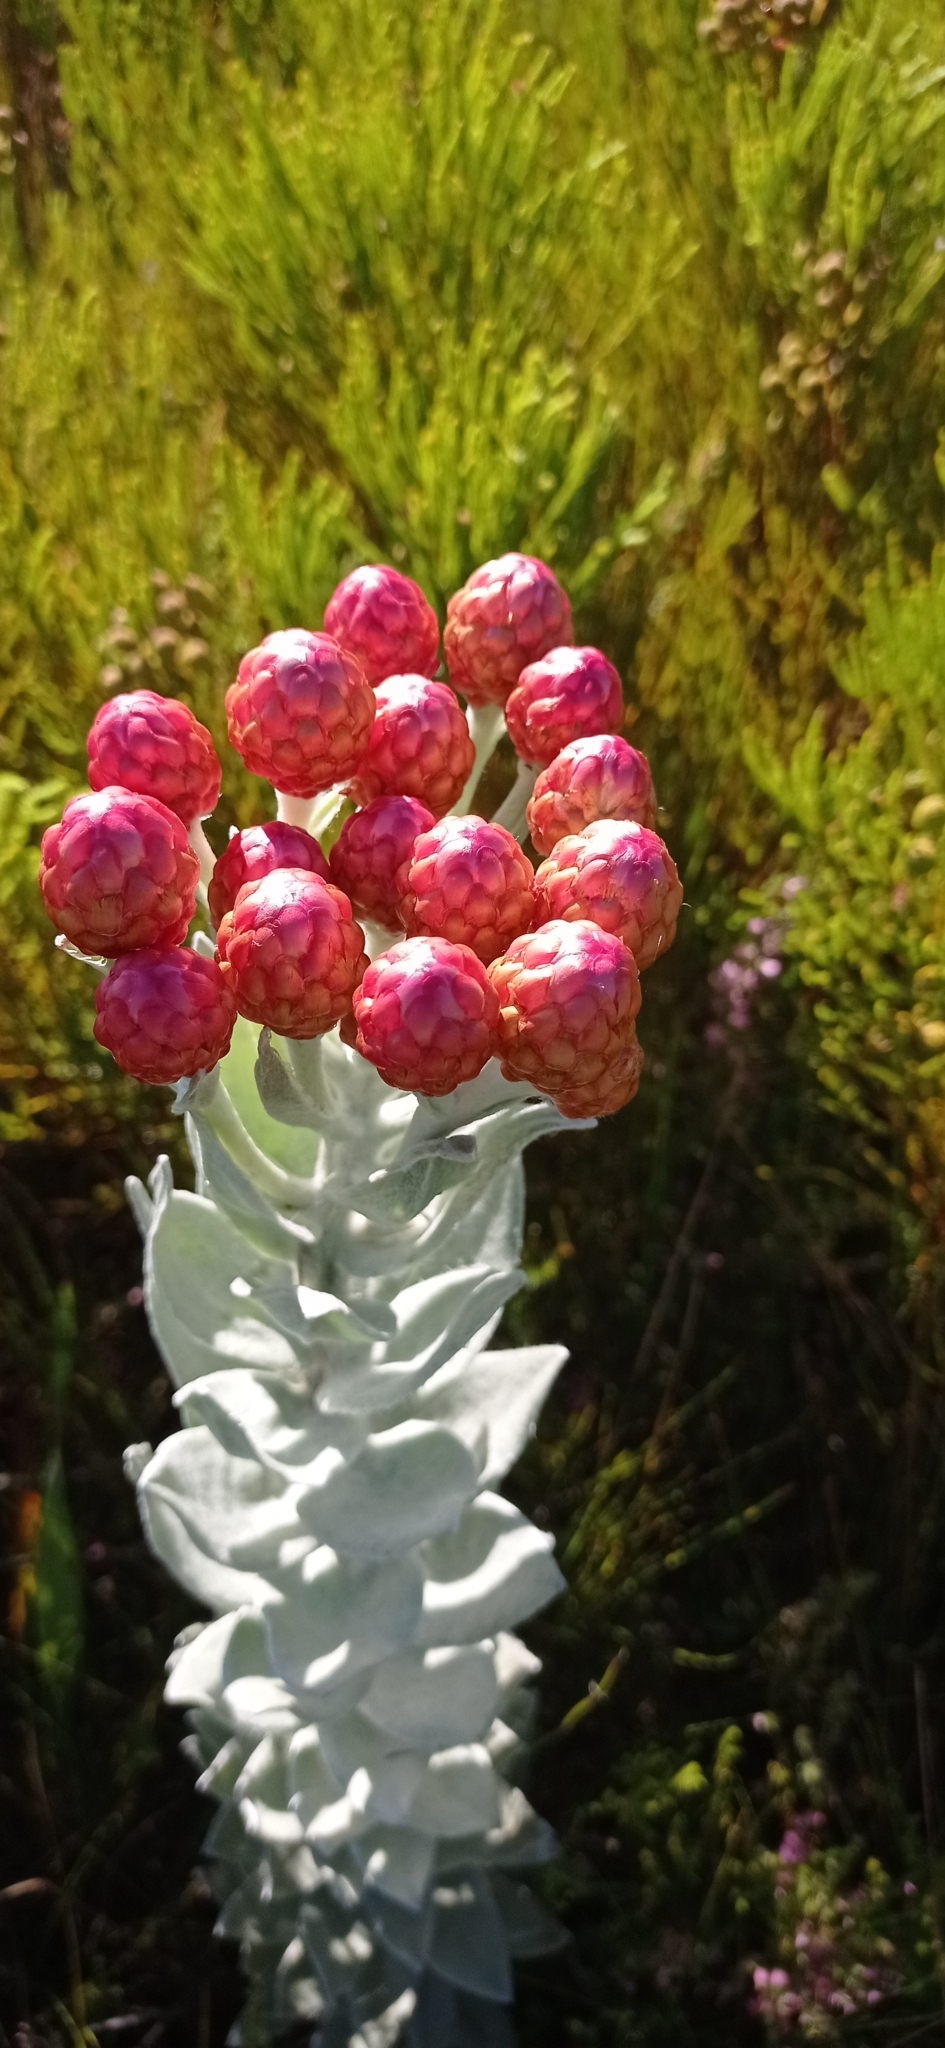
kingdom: Plantae
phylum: Tracheophyta
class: Magnoliopsida
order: Asterales
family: Asteraceae
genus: Syncarpha
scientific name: Syncarpha eximia
